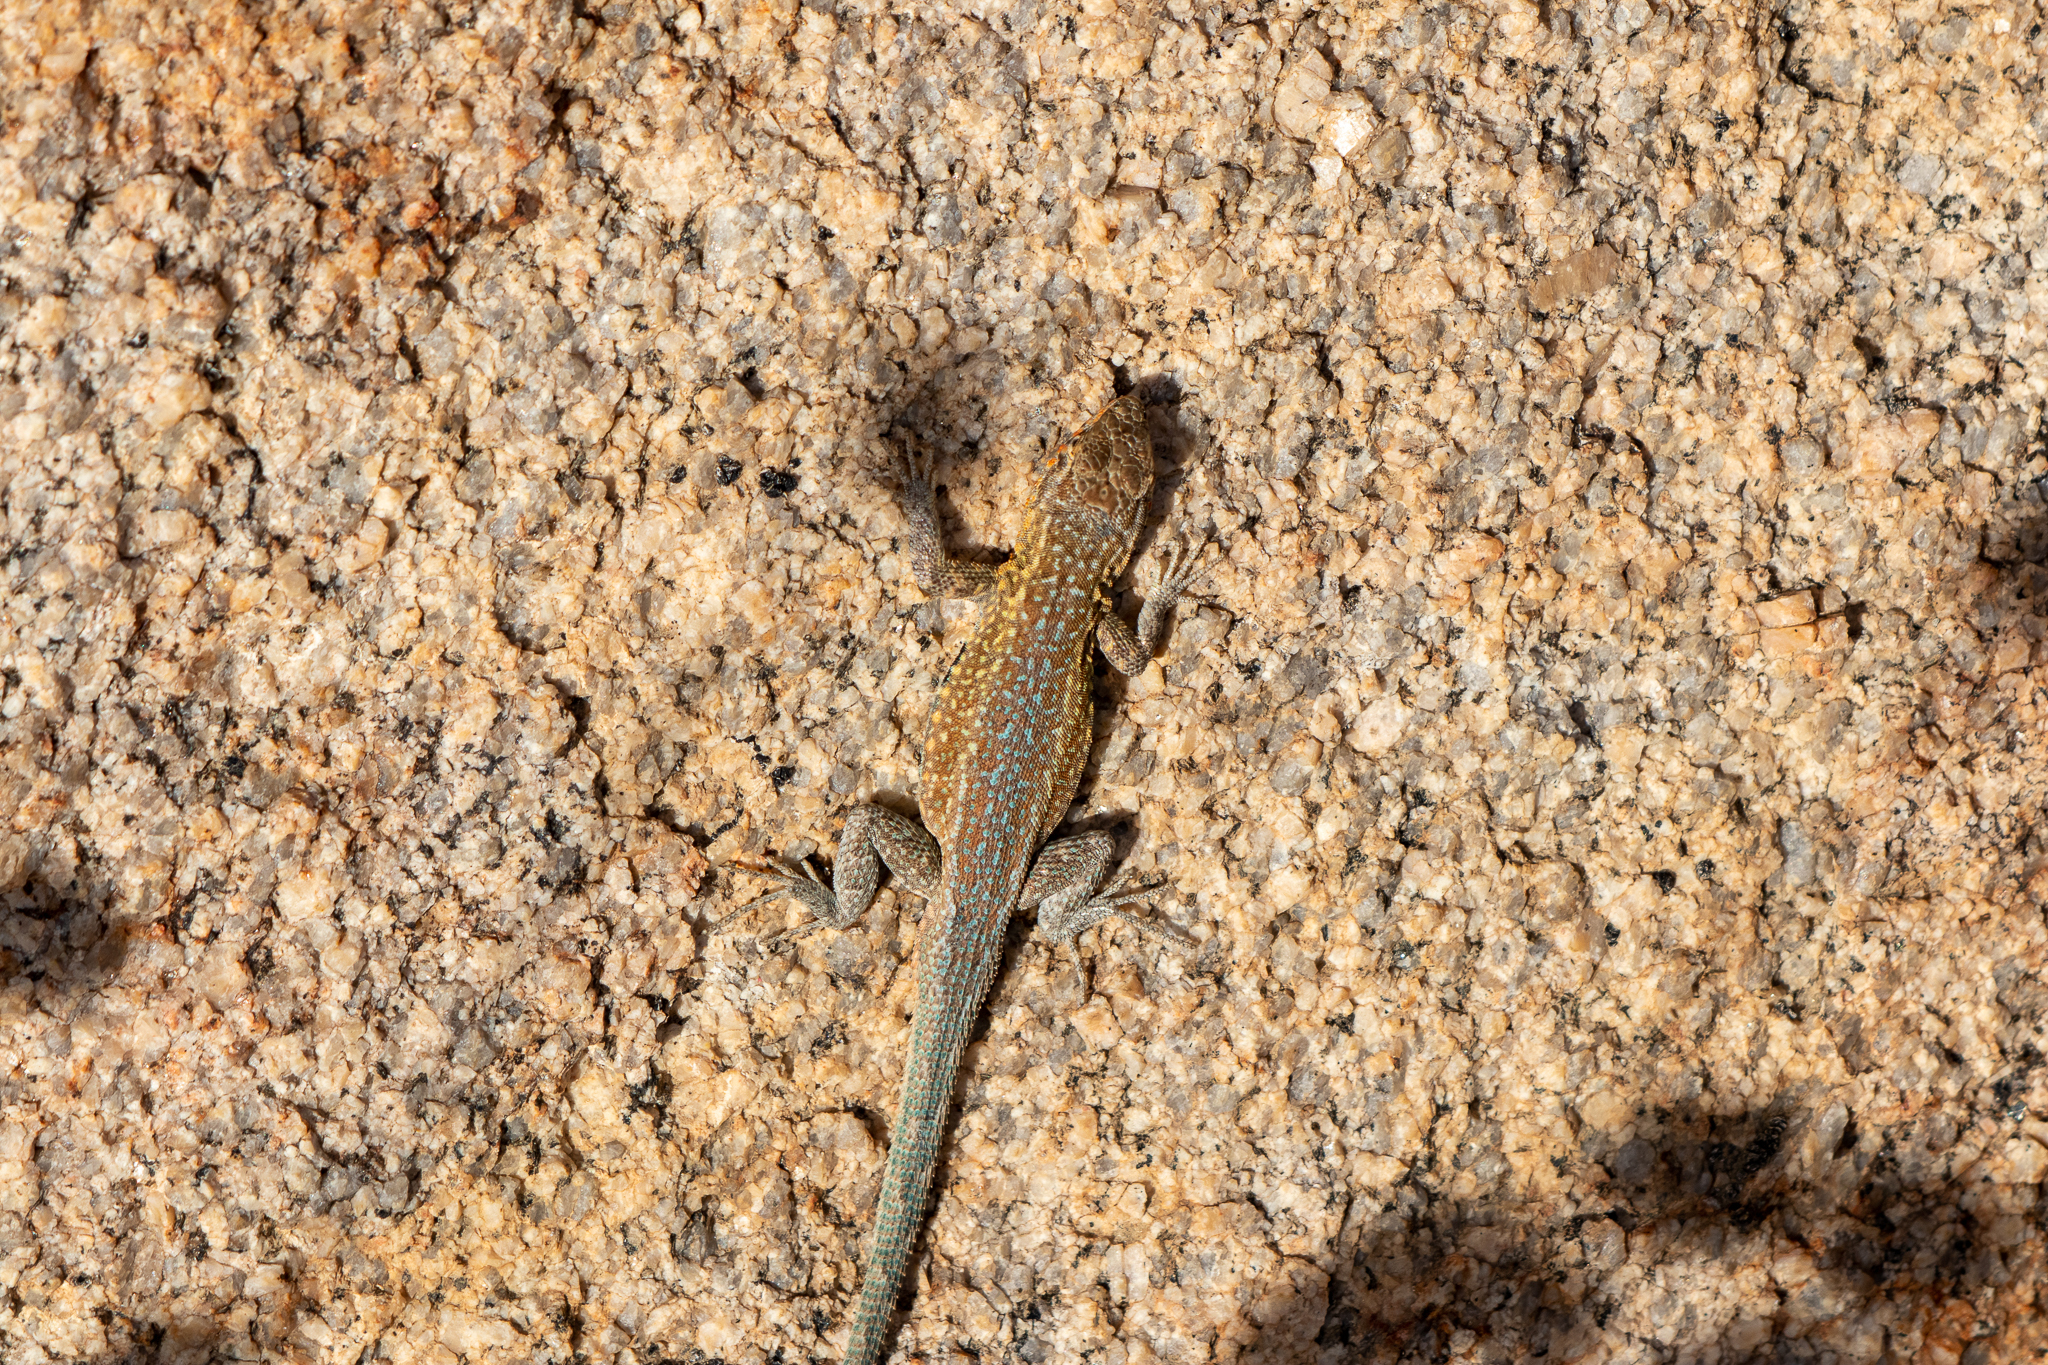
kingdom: Animalia
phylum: Chordata
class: Squamata
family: Phrynosomatidae
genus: Uta
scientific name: Uta stansburiana
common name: Side-blotched lizard
